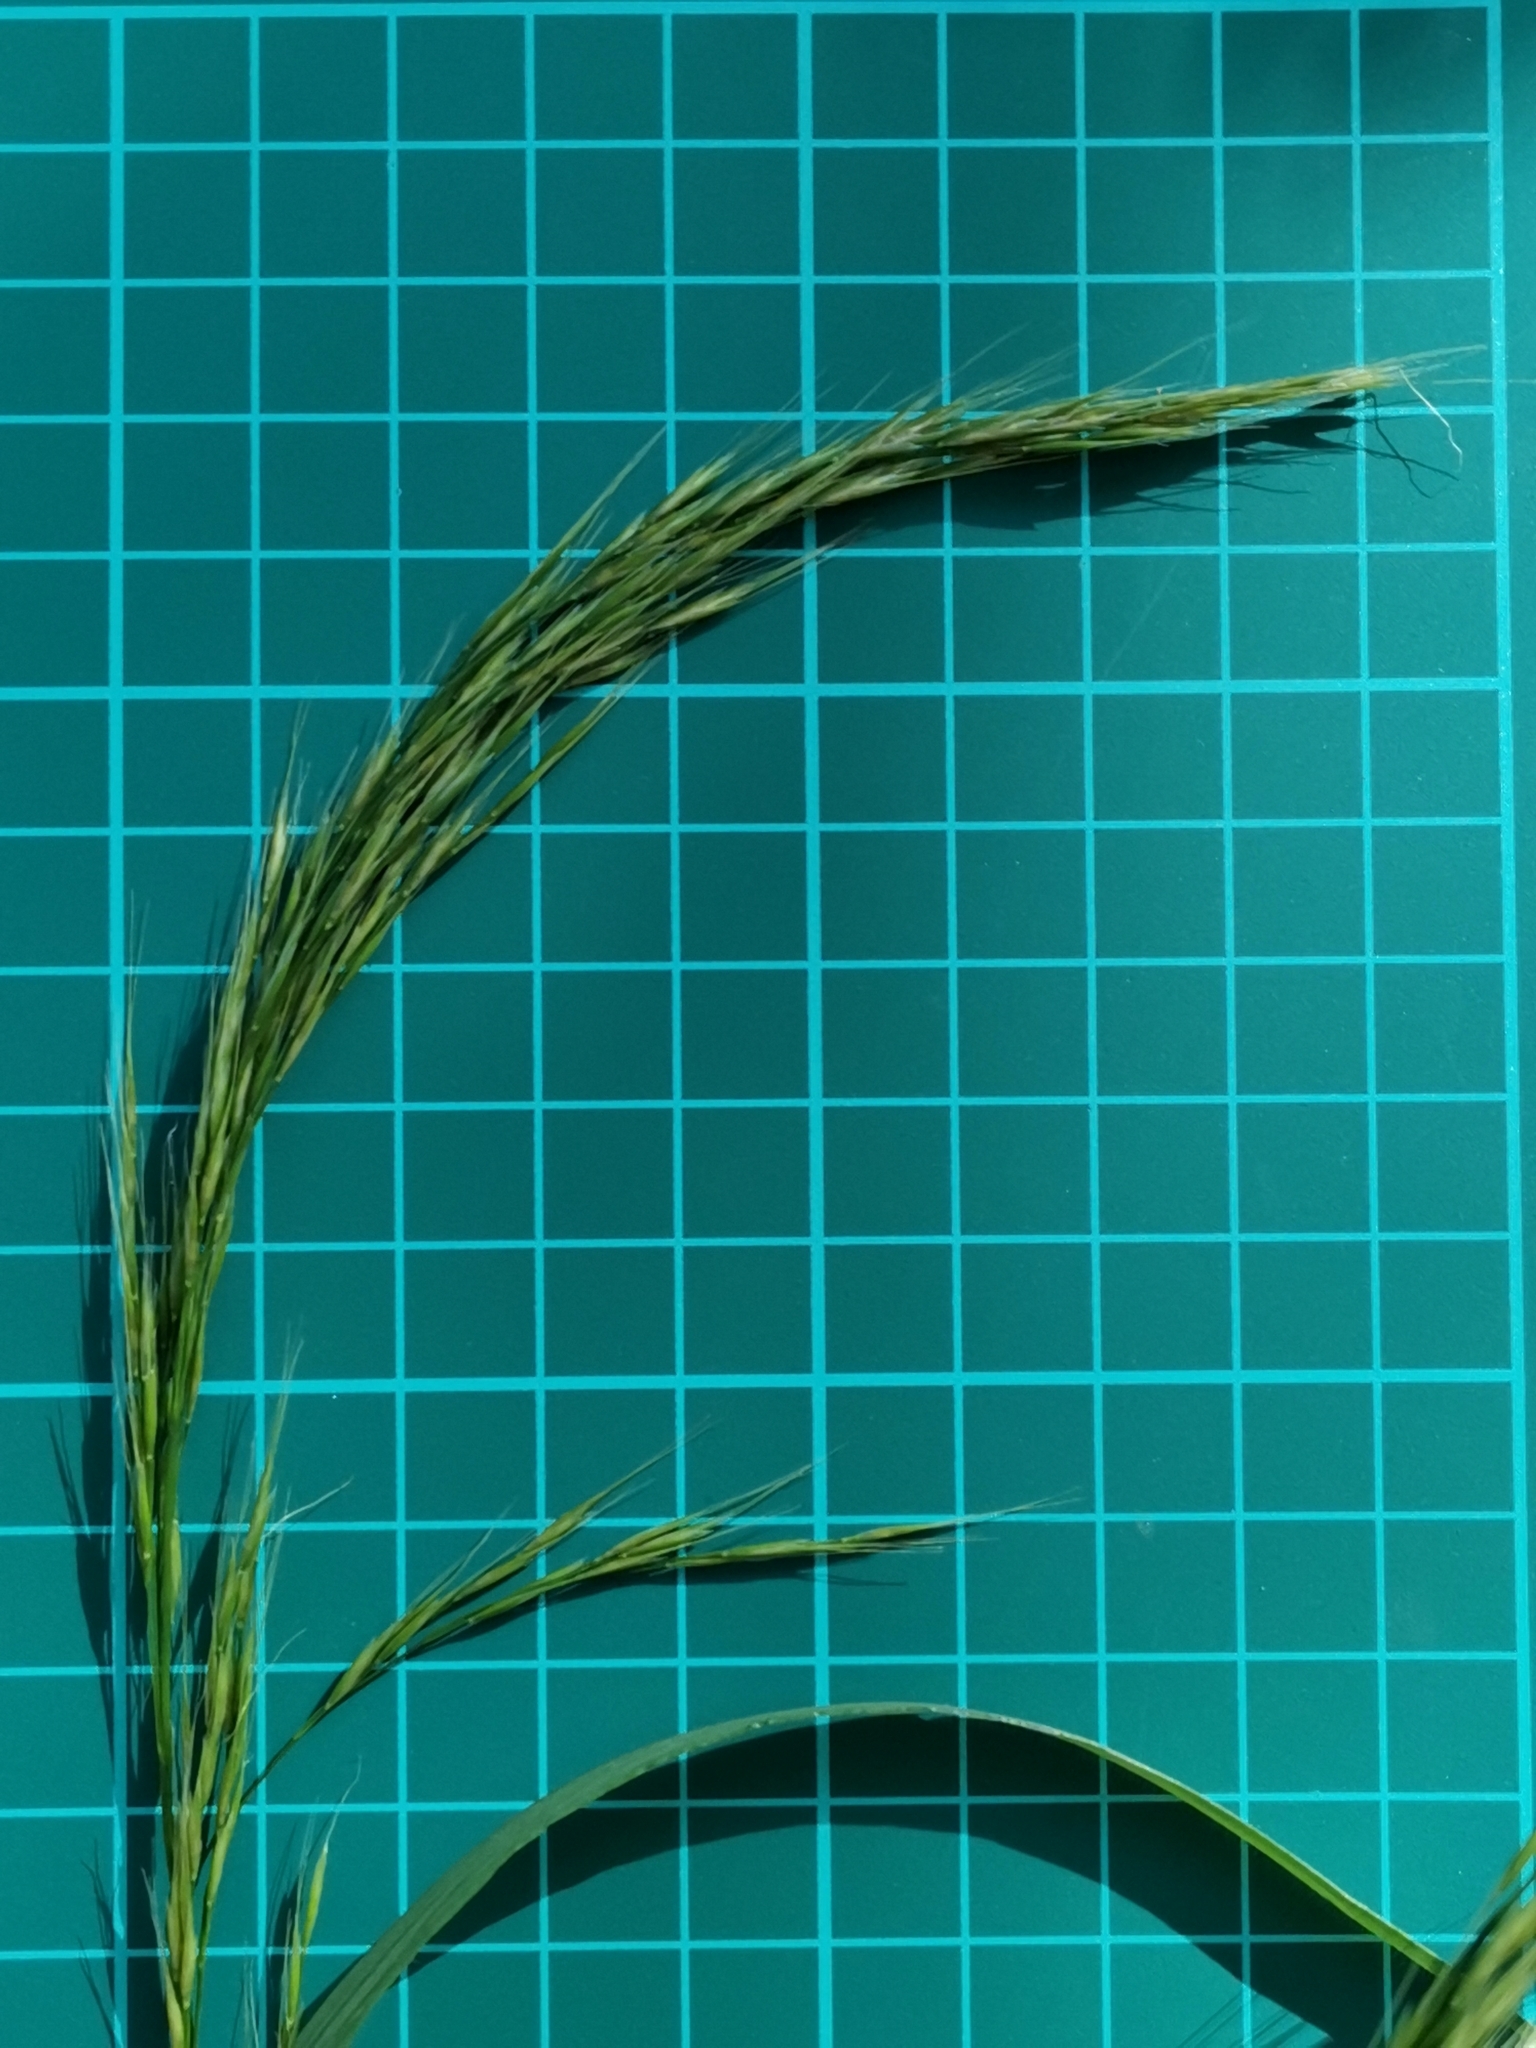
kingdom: Plantae
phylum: Tracheophyta
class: Liliopsida
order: Poales
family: Poaceae
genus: Sibirotrisetum
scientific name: Sibirotrisetum bifidum
